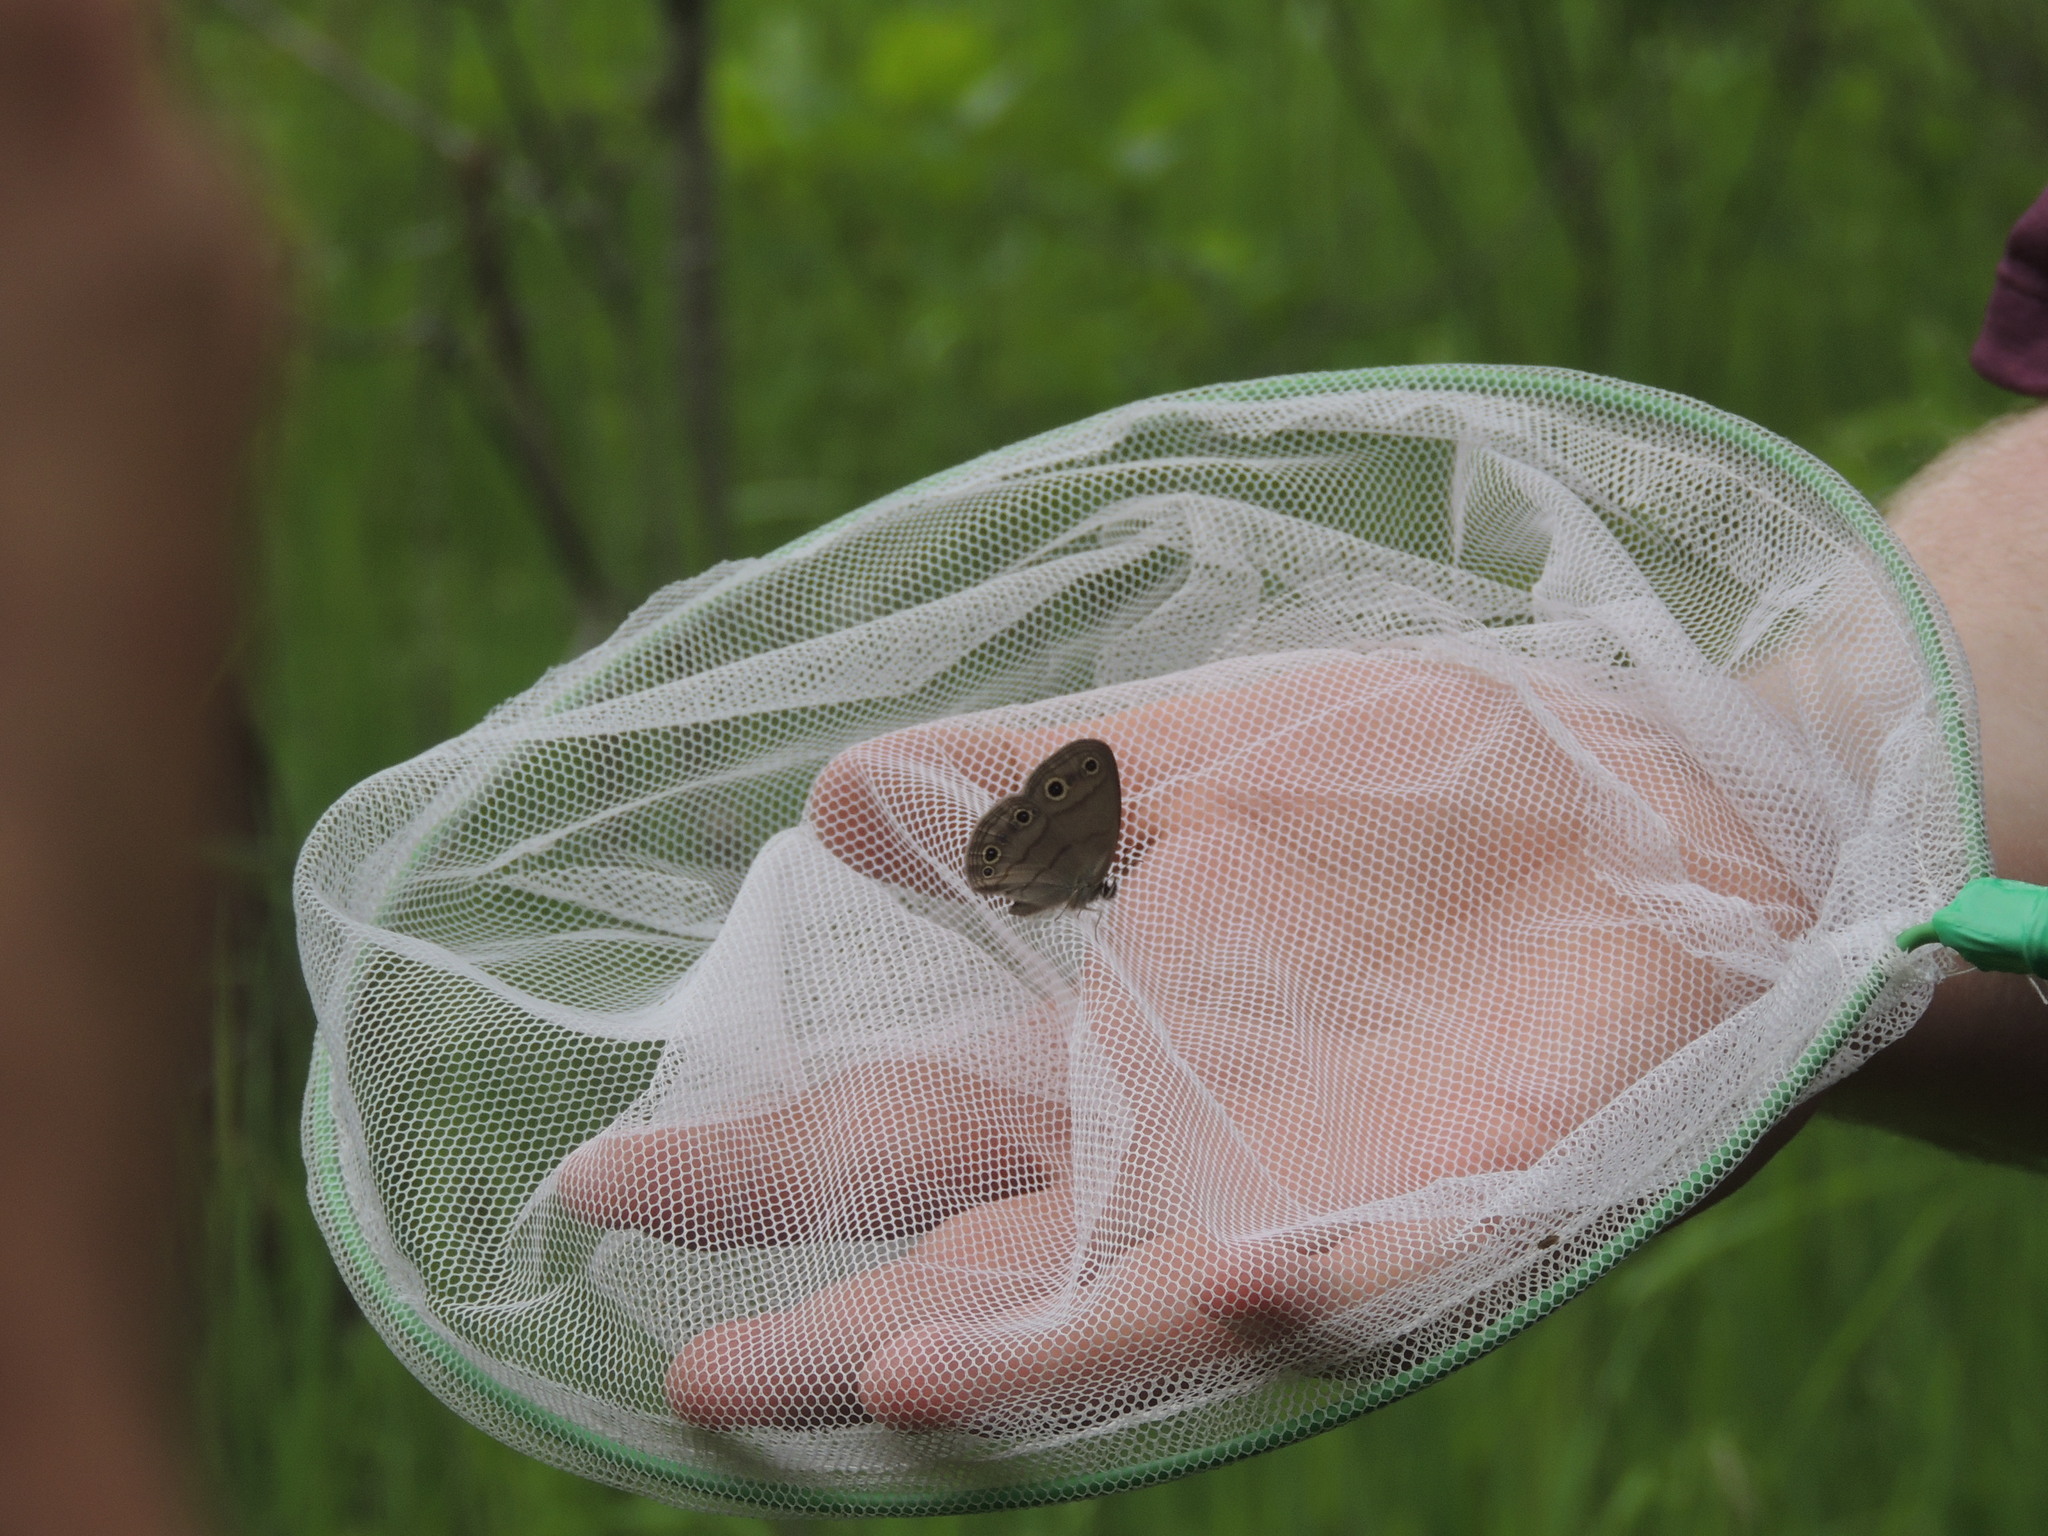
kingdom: Animalia
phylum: Arthropoda
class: Insecta
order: Lepidoptera
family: Nymphalidae
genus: Euptychia
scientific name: Euptychia cymela
